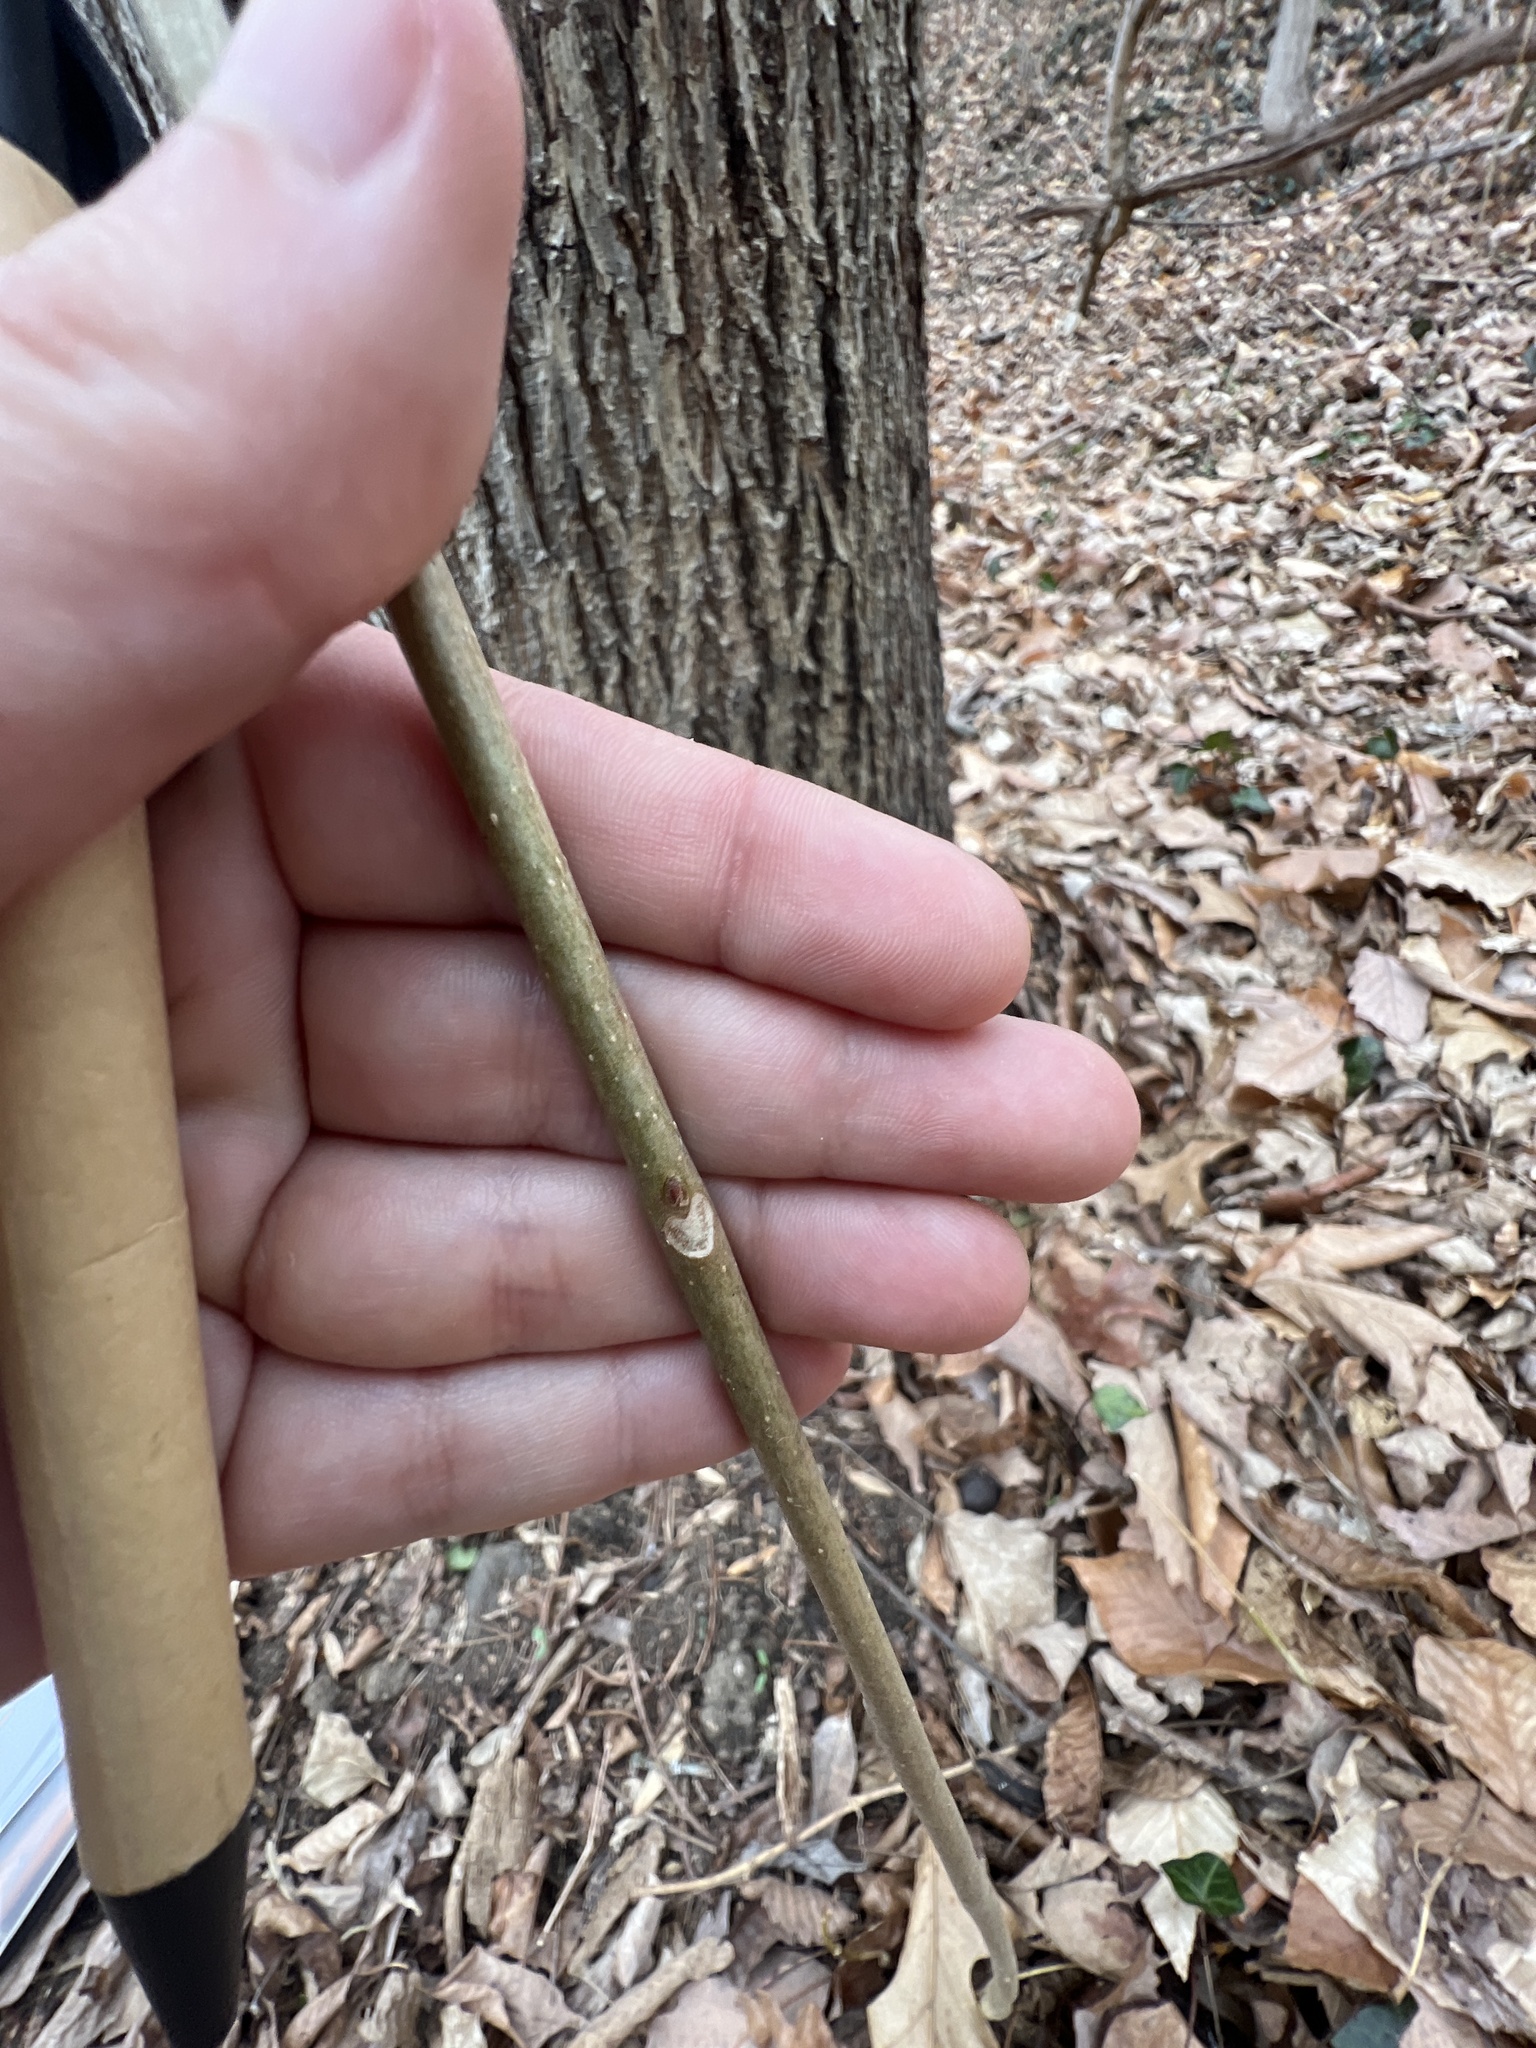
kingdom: Plantae
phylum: Tracheophyta
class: Magnoliopsida
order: Sapindales
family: Simaroubaceae
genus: Ailanthus
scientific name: Ailanthus altissima
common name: Tree-of-heaven
